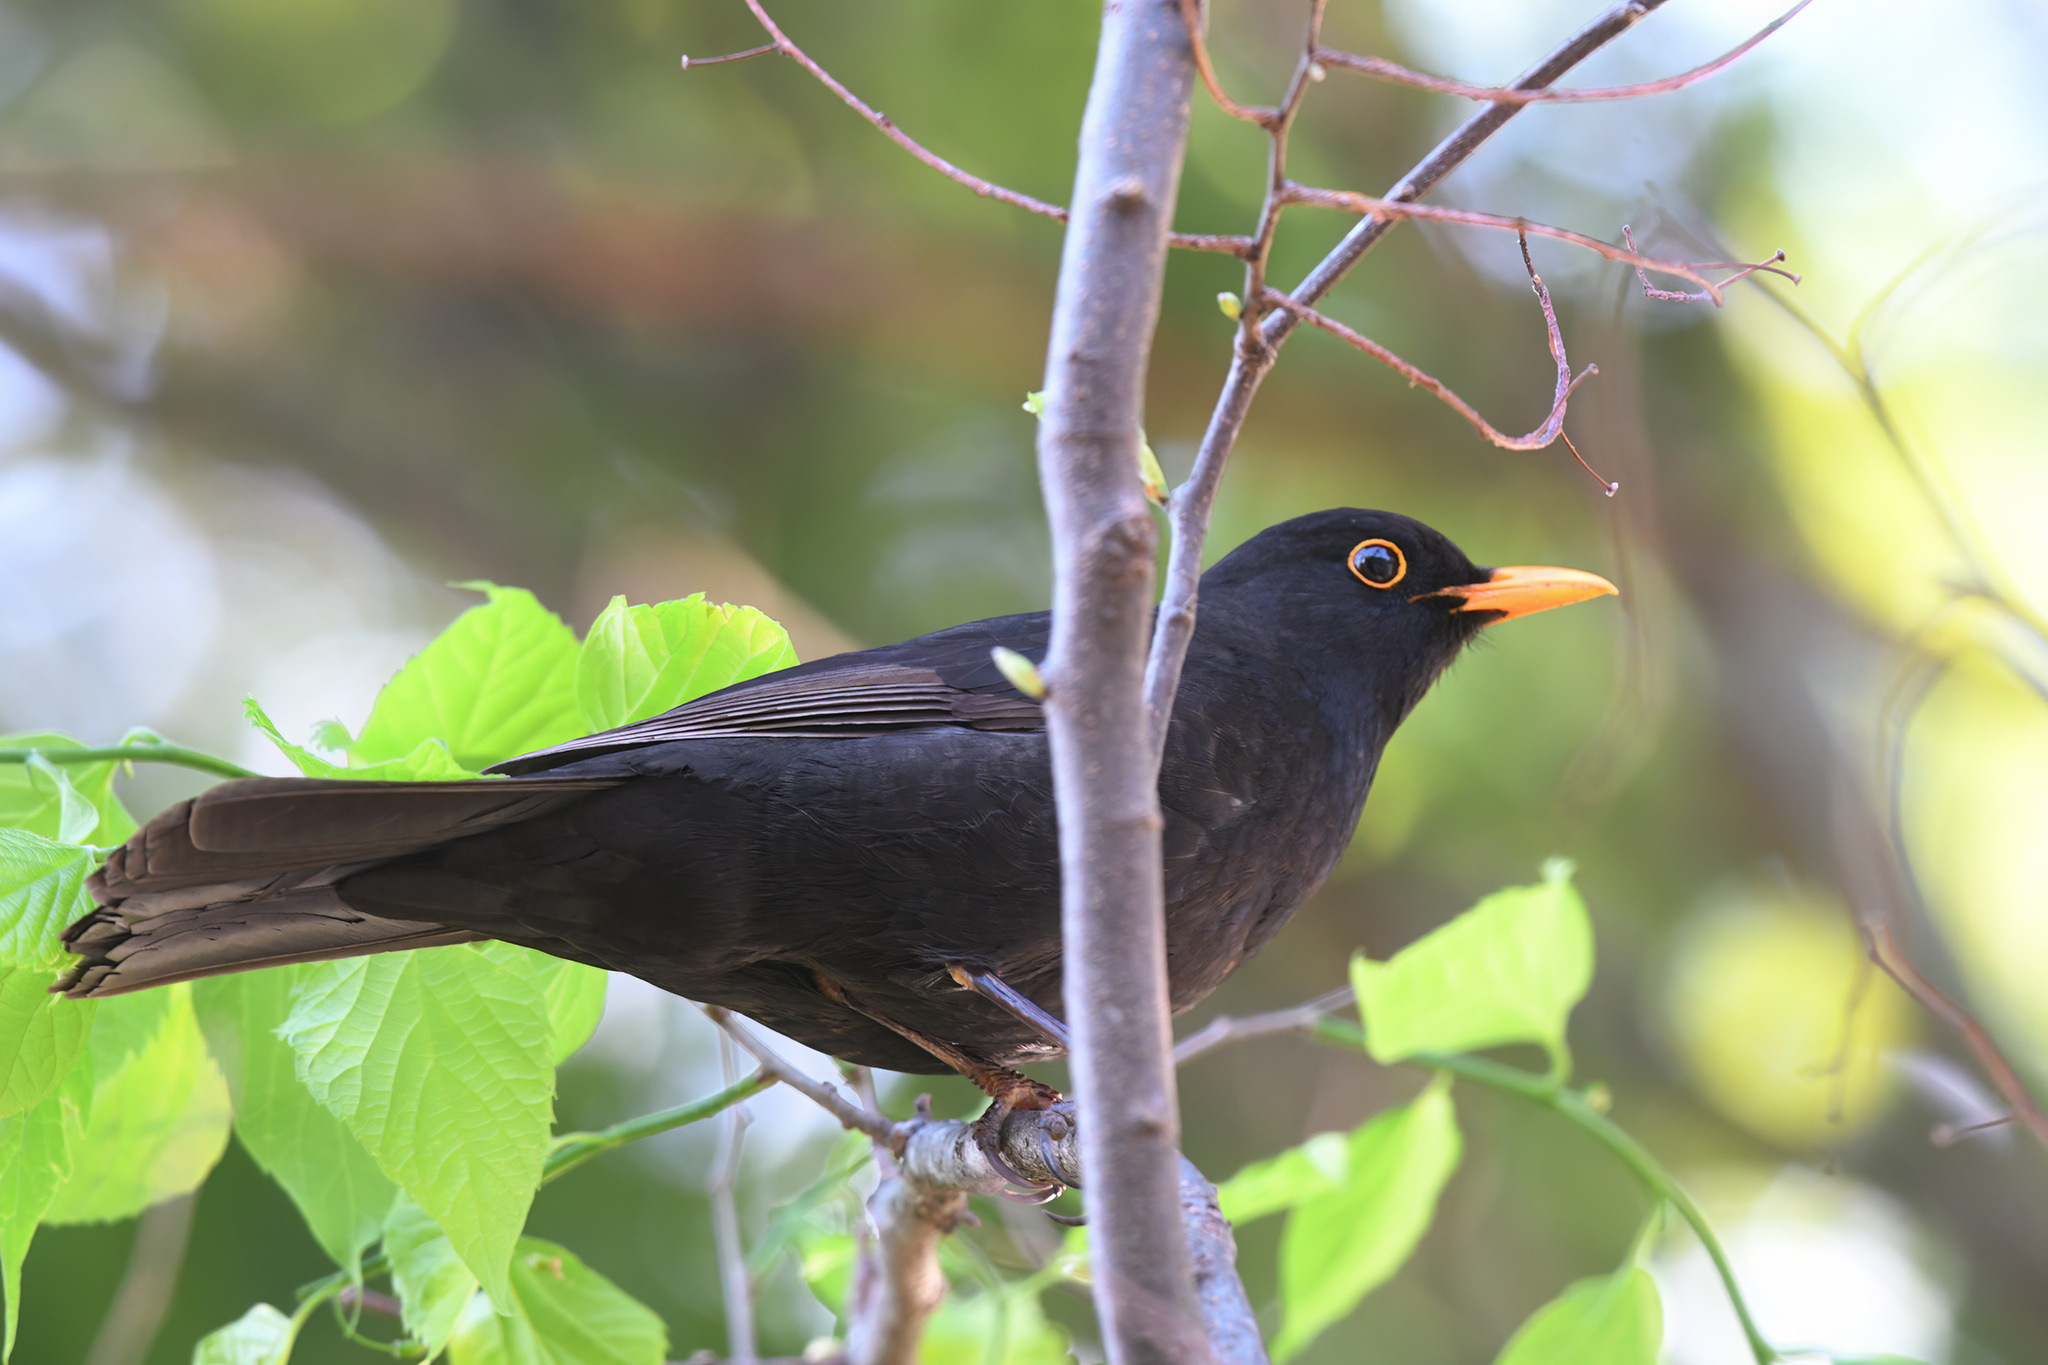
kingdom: Animalia
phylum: Chordata
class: Aves
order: Passeriformes
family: Turdidae
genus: Turdus
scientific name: Turdus merula
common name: Common blackbird
